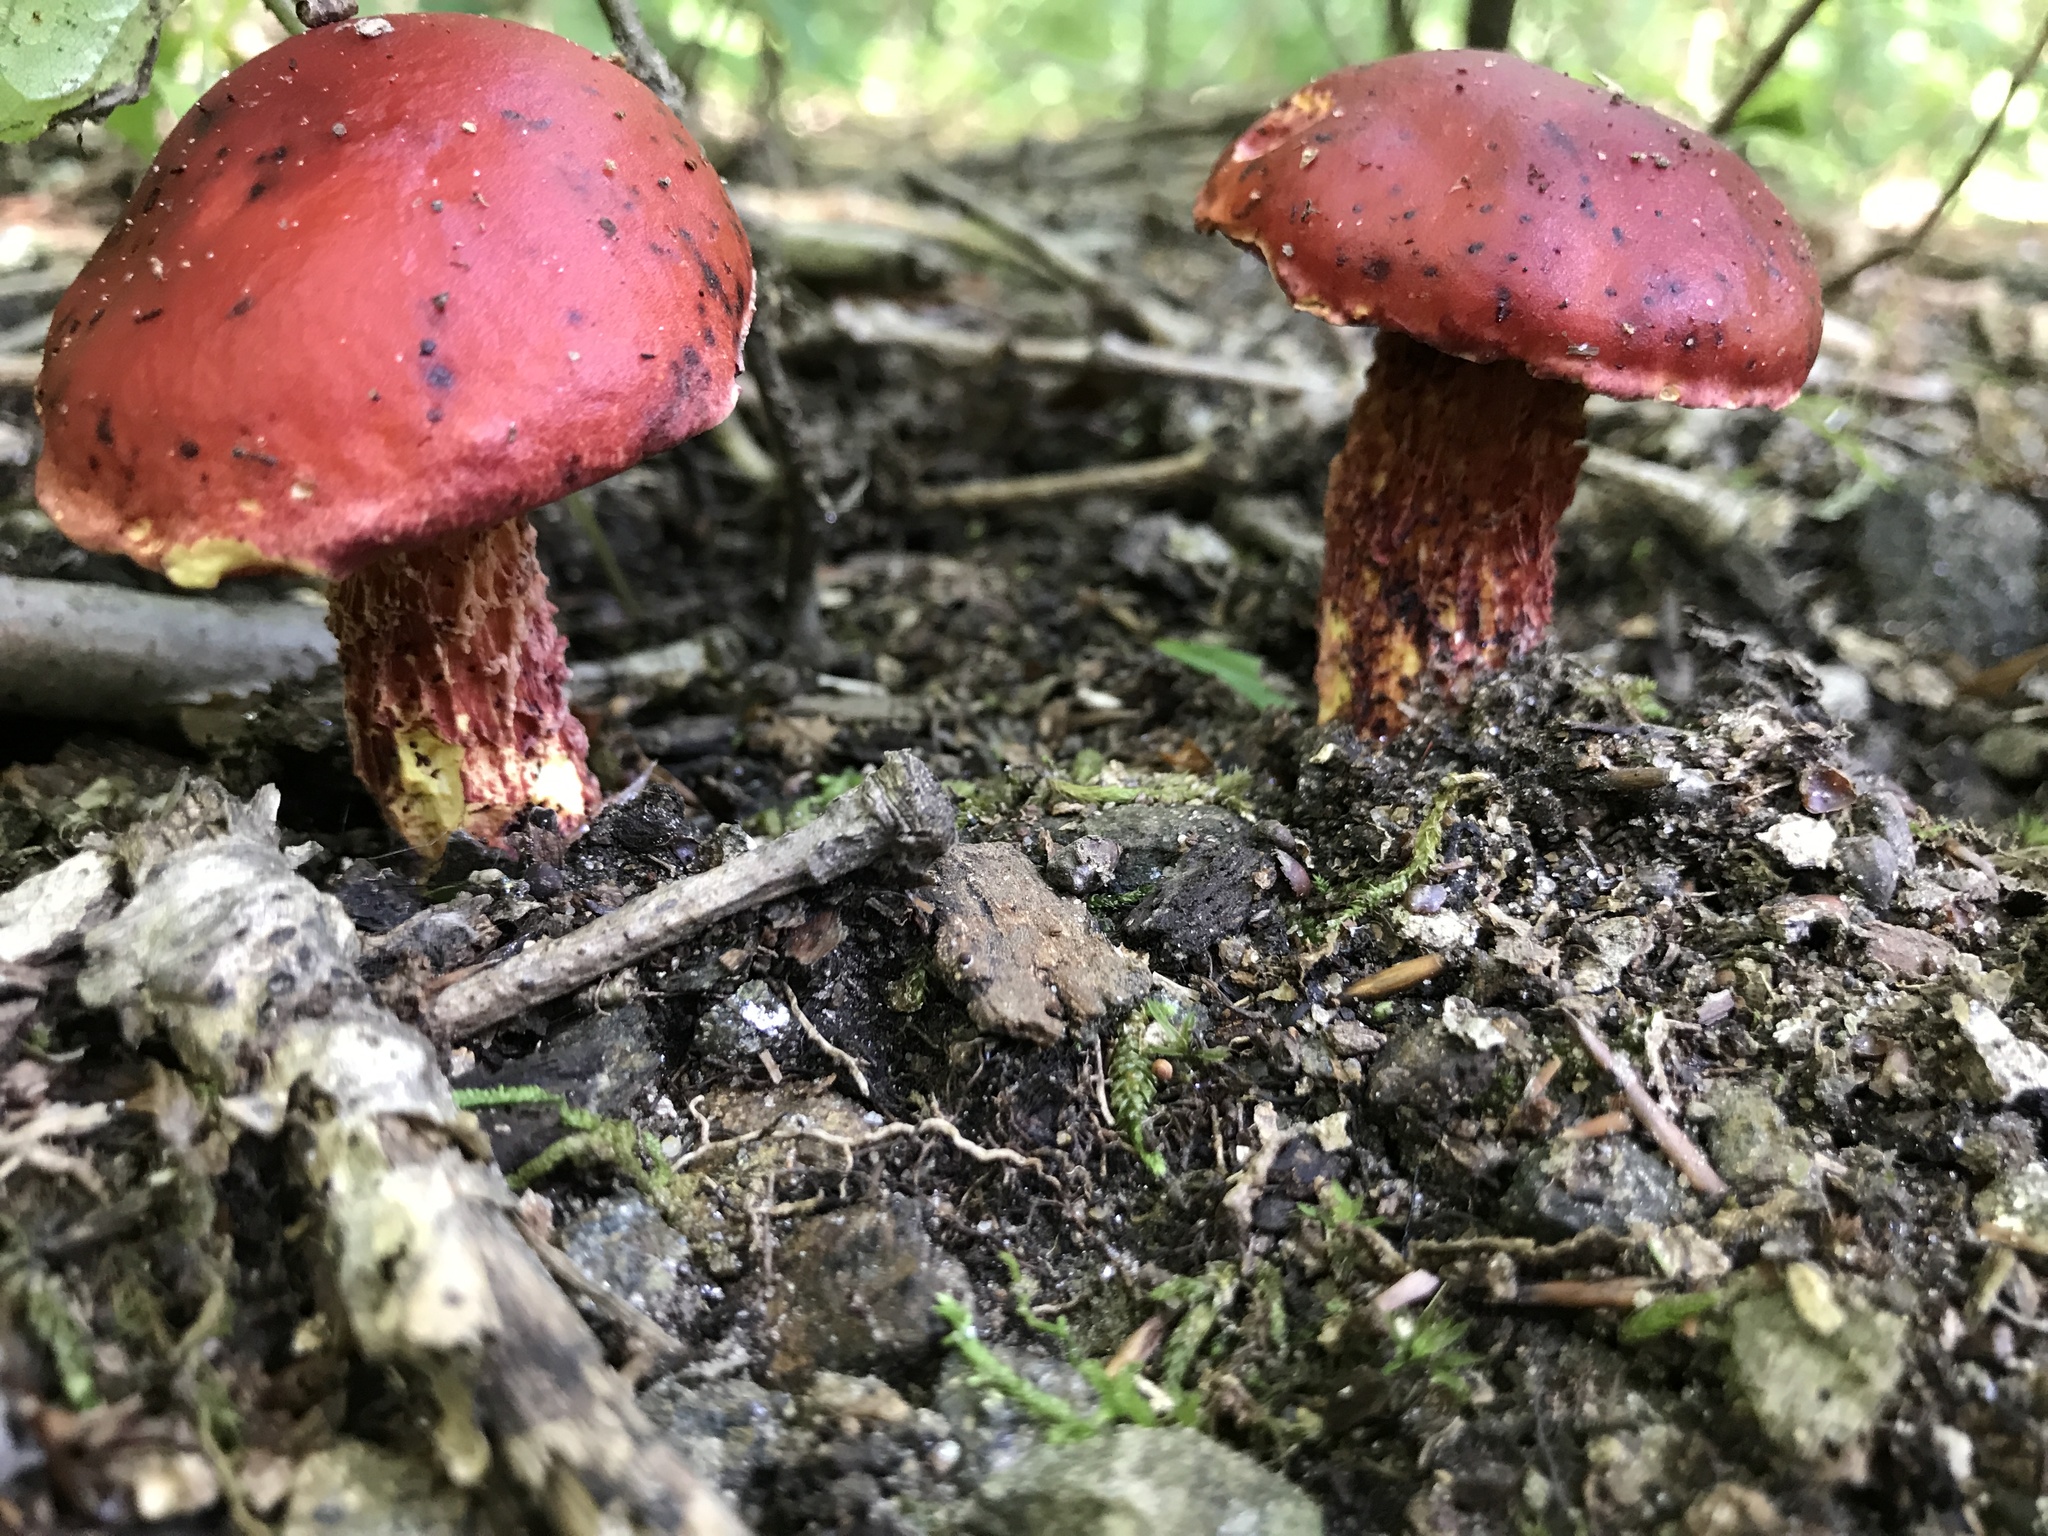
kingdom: Fungi
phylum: Basidiomycota
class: Agaricomycetes
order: Boletales
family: Boletaceae
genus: Butyriboletus
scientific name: Butyriboletus frostii
